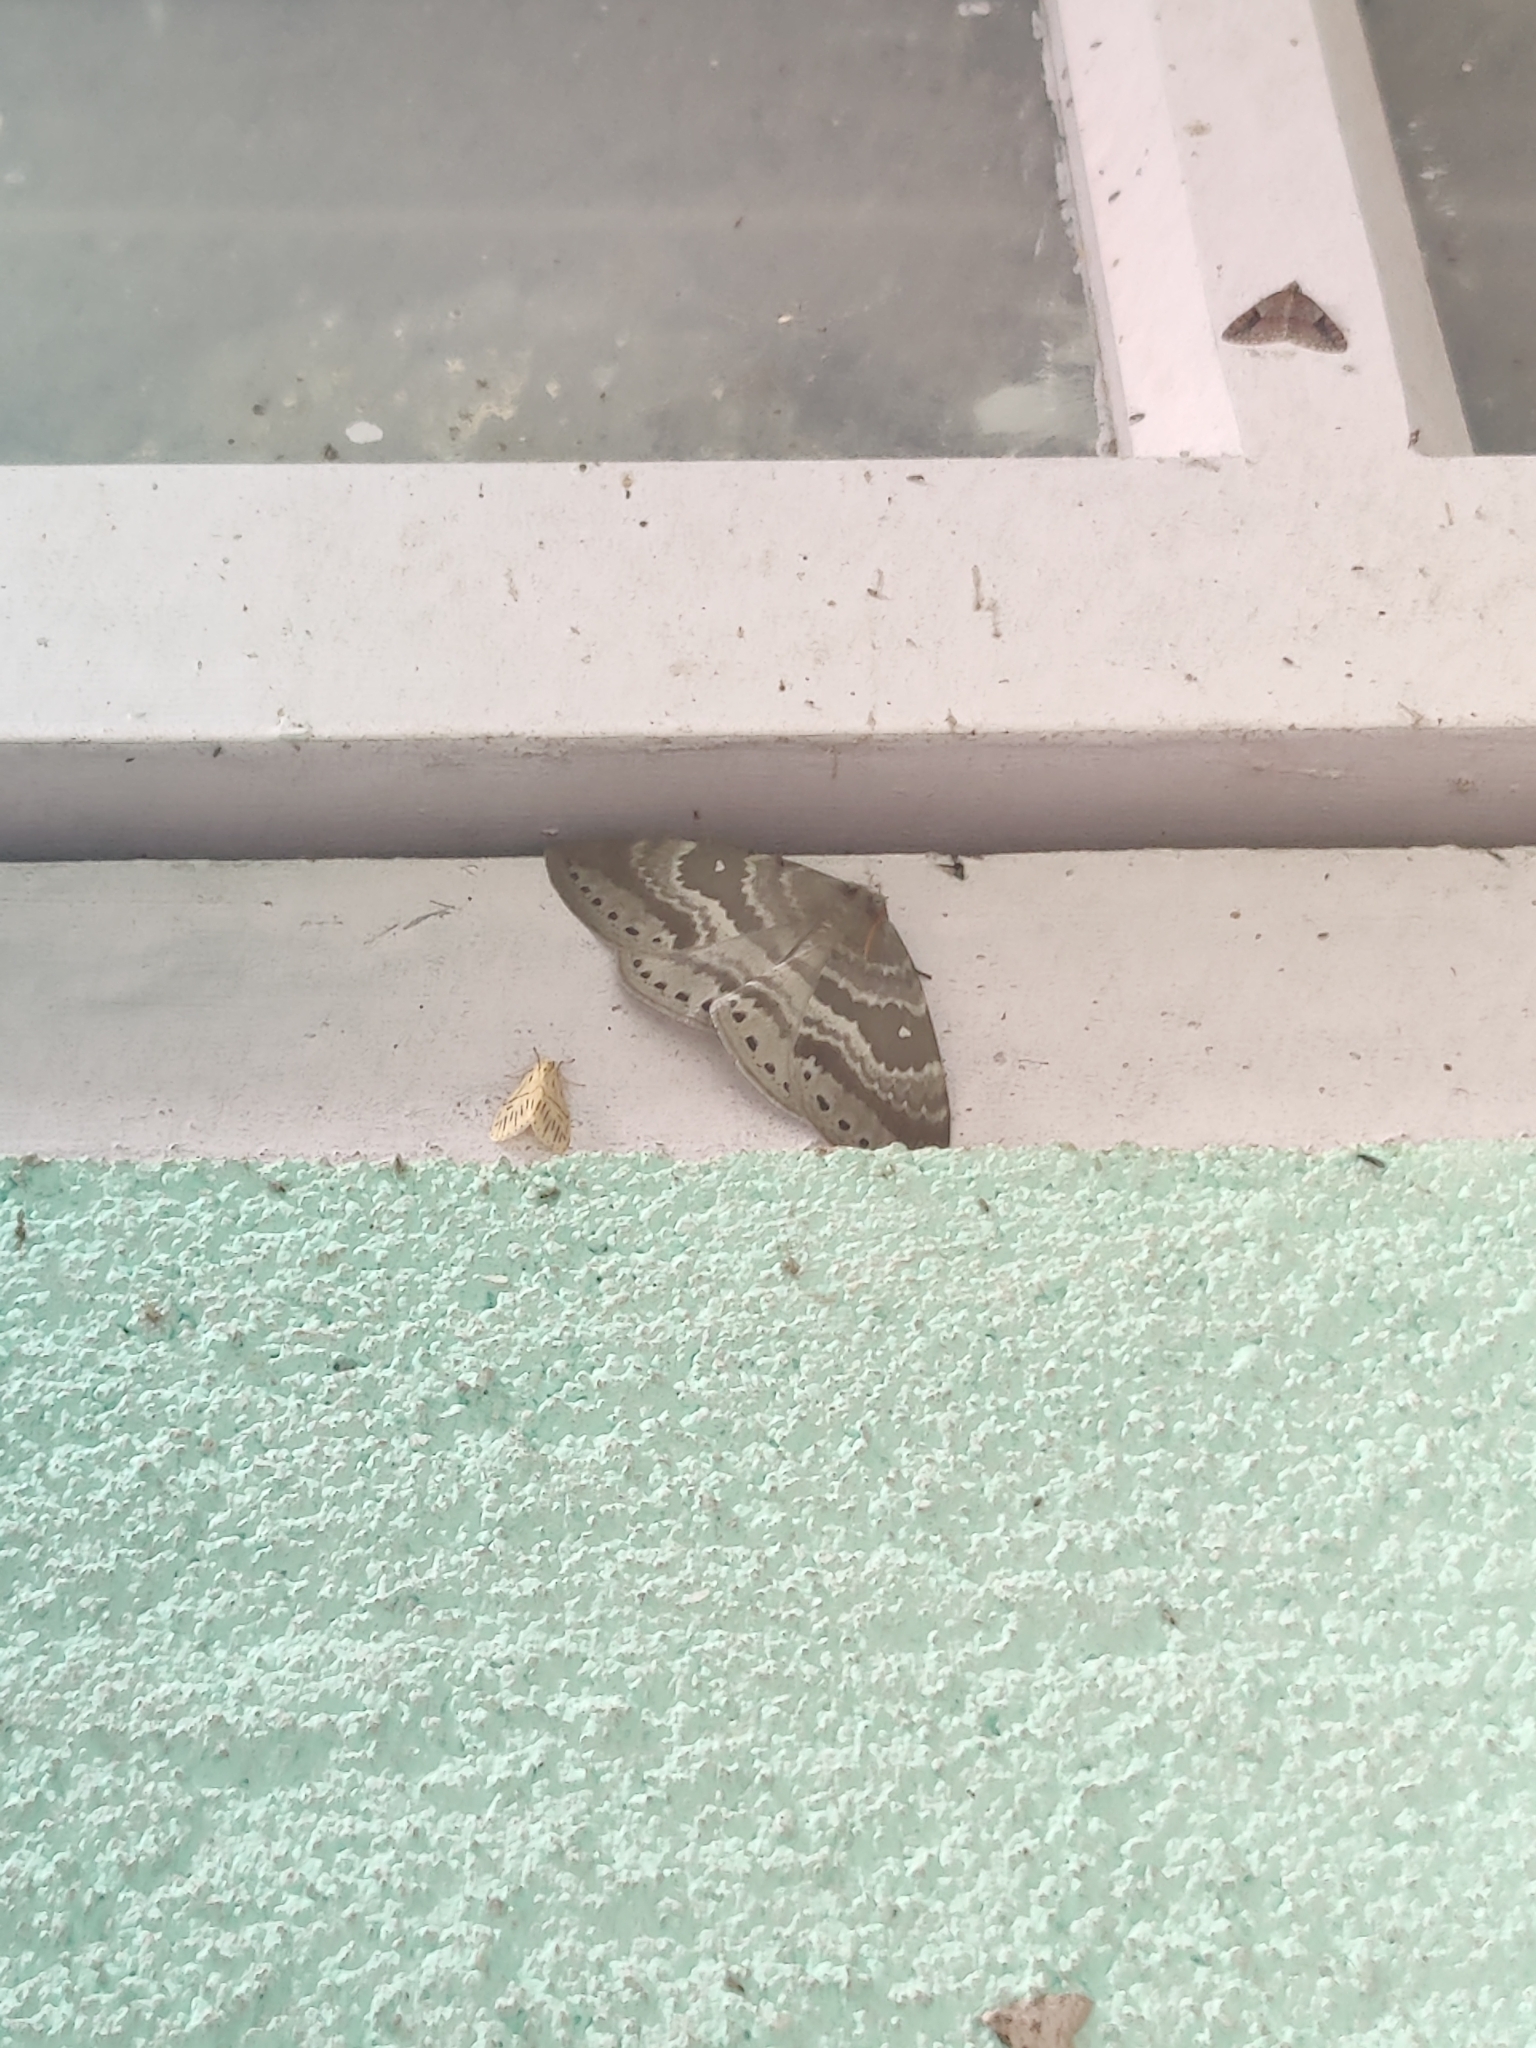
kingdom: Animalia
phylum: Arthropoda
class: Insecta
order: Lepidoptera
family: Drepanidae
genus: Cyclidia
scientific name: Cyclidia rectificata
